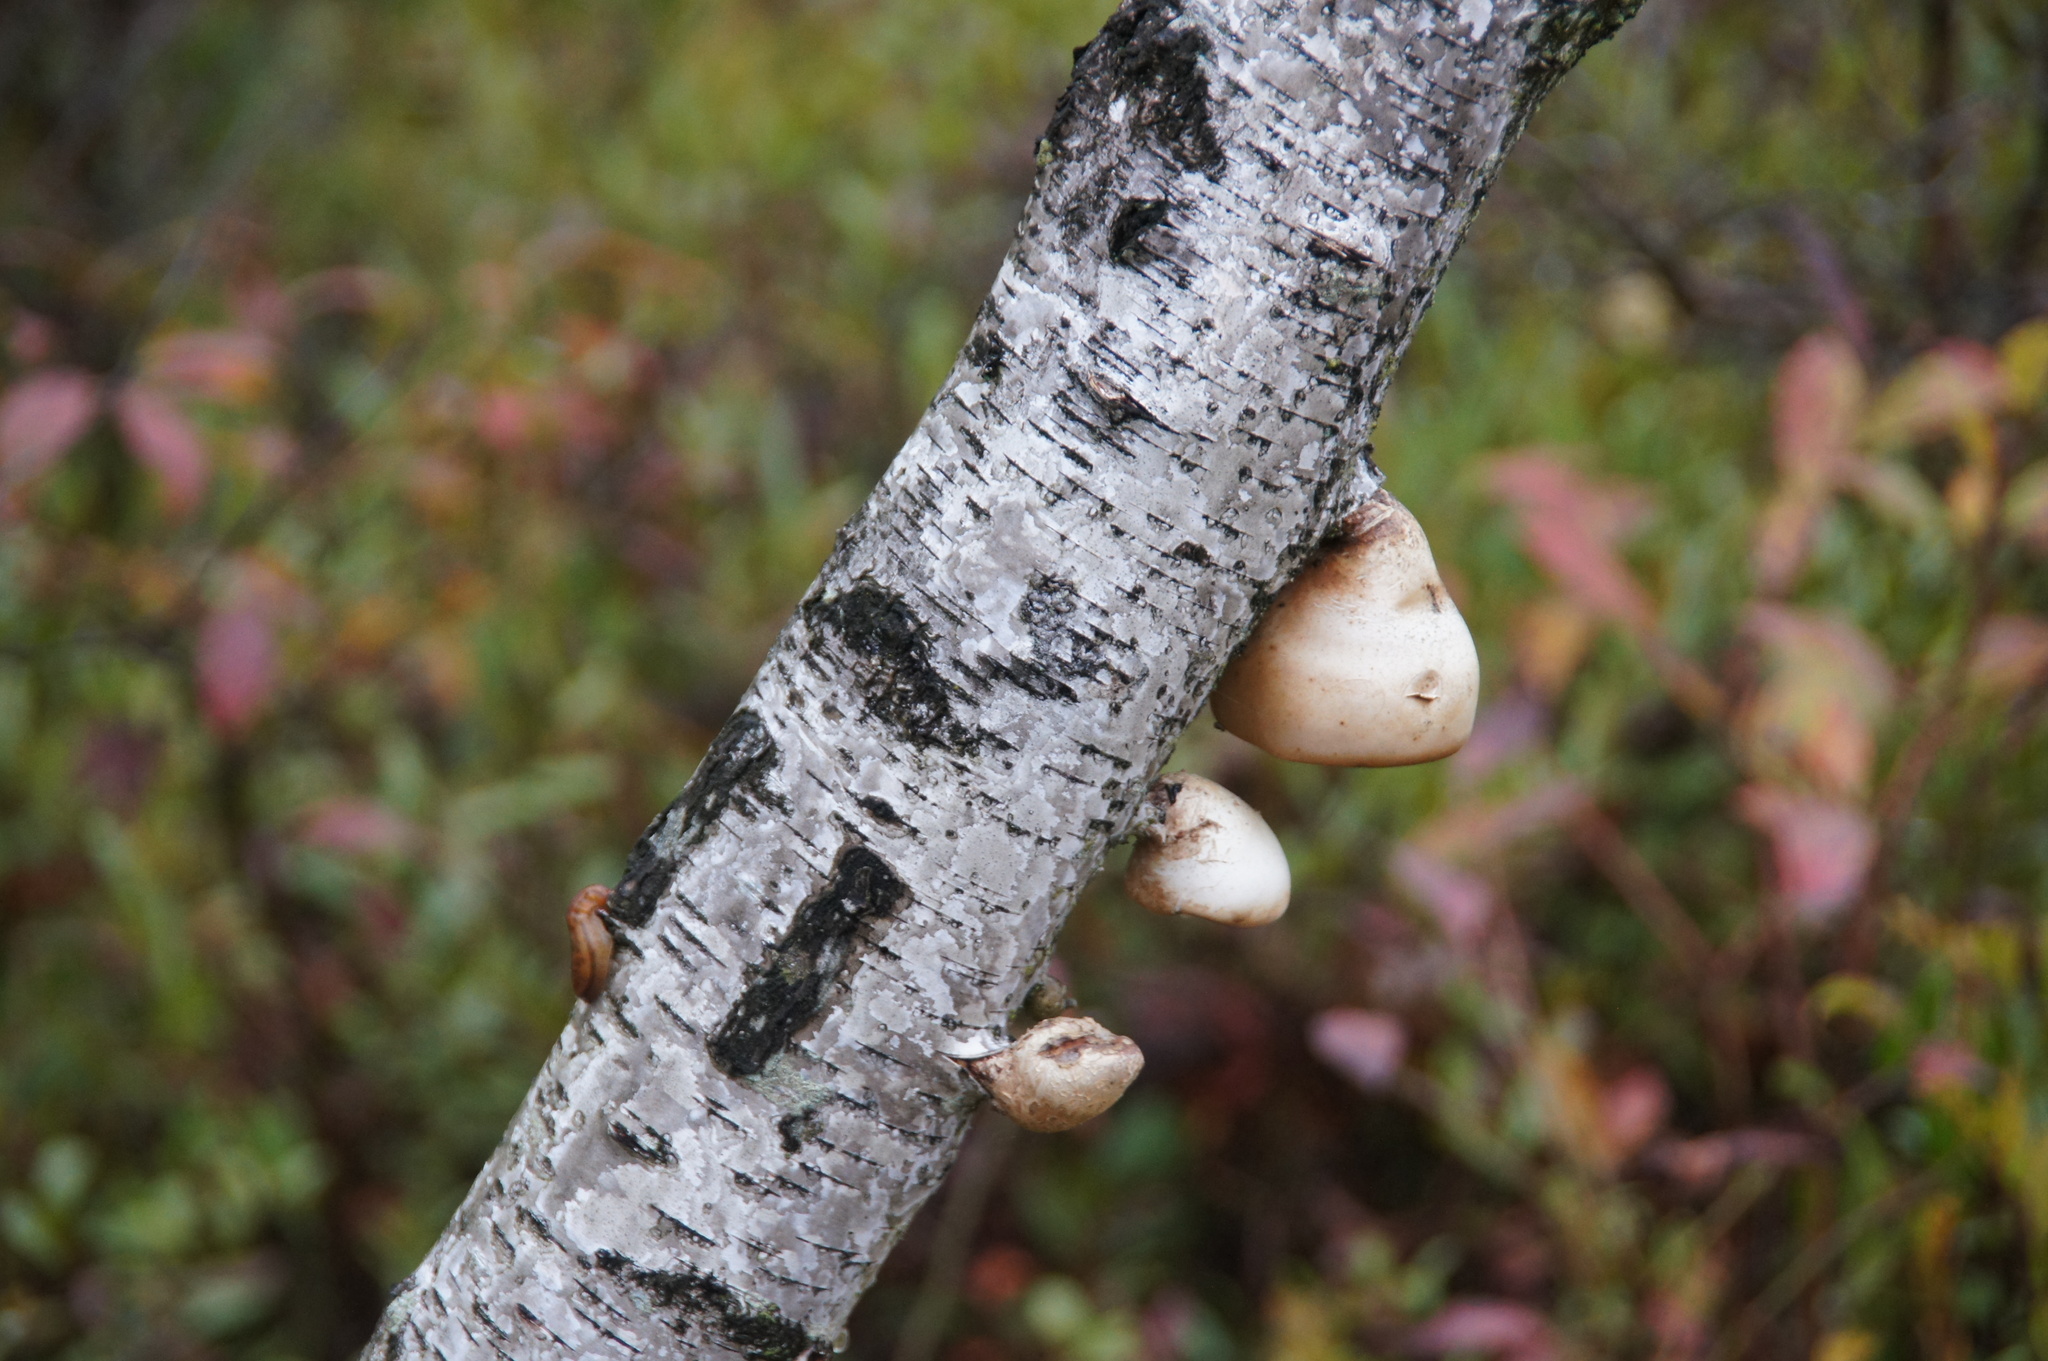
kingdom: Fungi
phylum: Basidiomycota
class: Agaricomycetes
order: Polyporales
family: Fomitopsidaceae
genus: Fomitopsis
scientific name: Fomitopsis betulina
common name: Birch polypore
